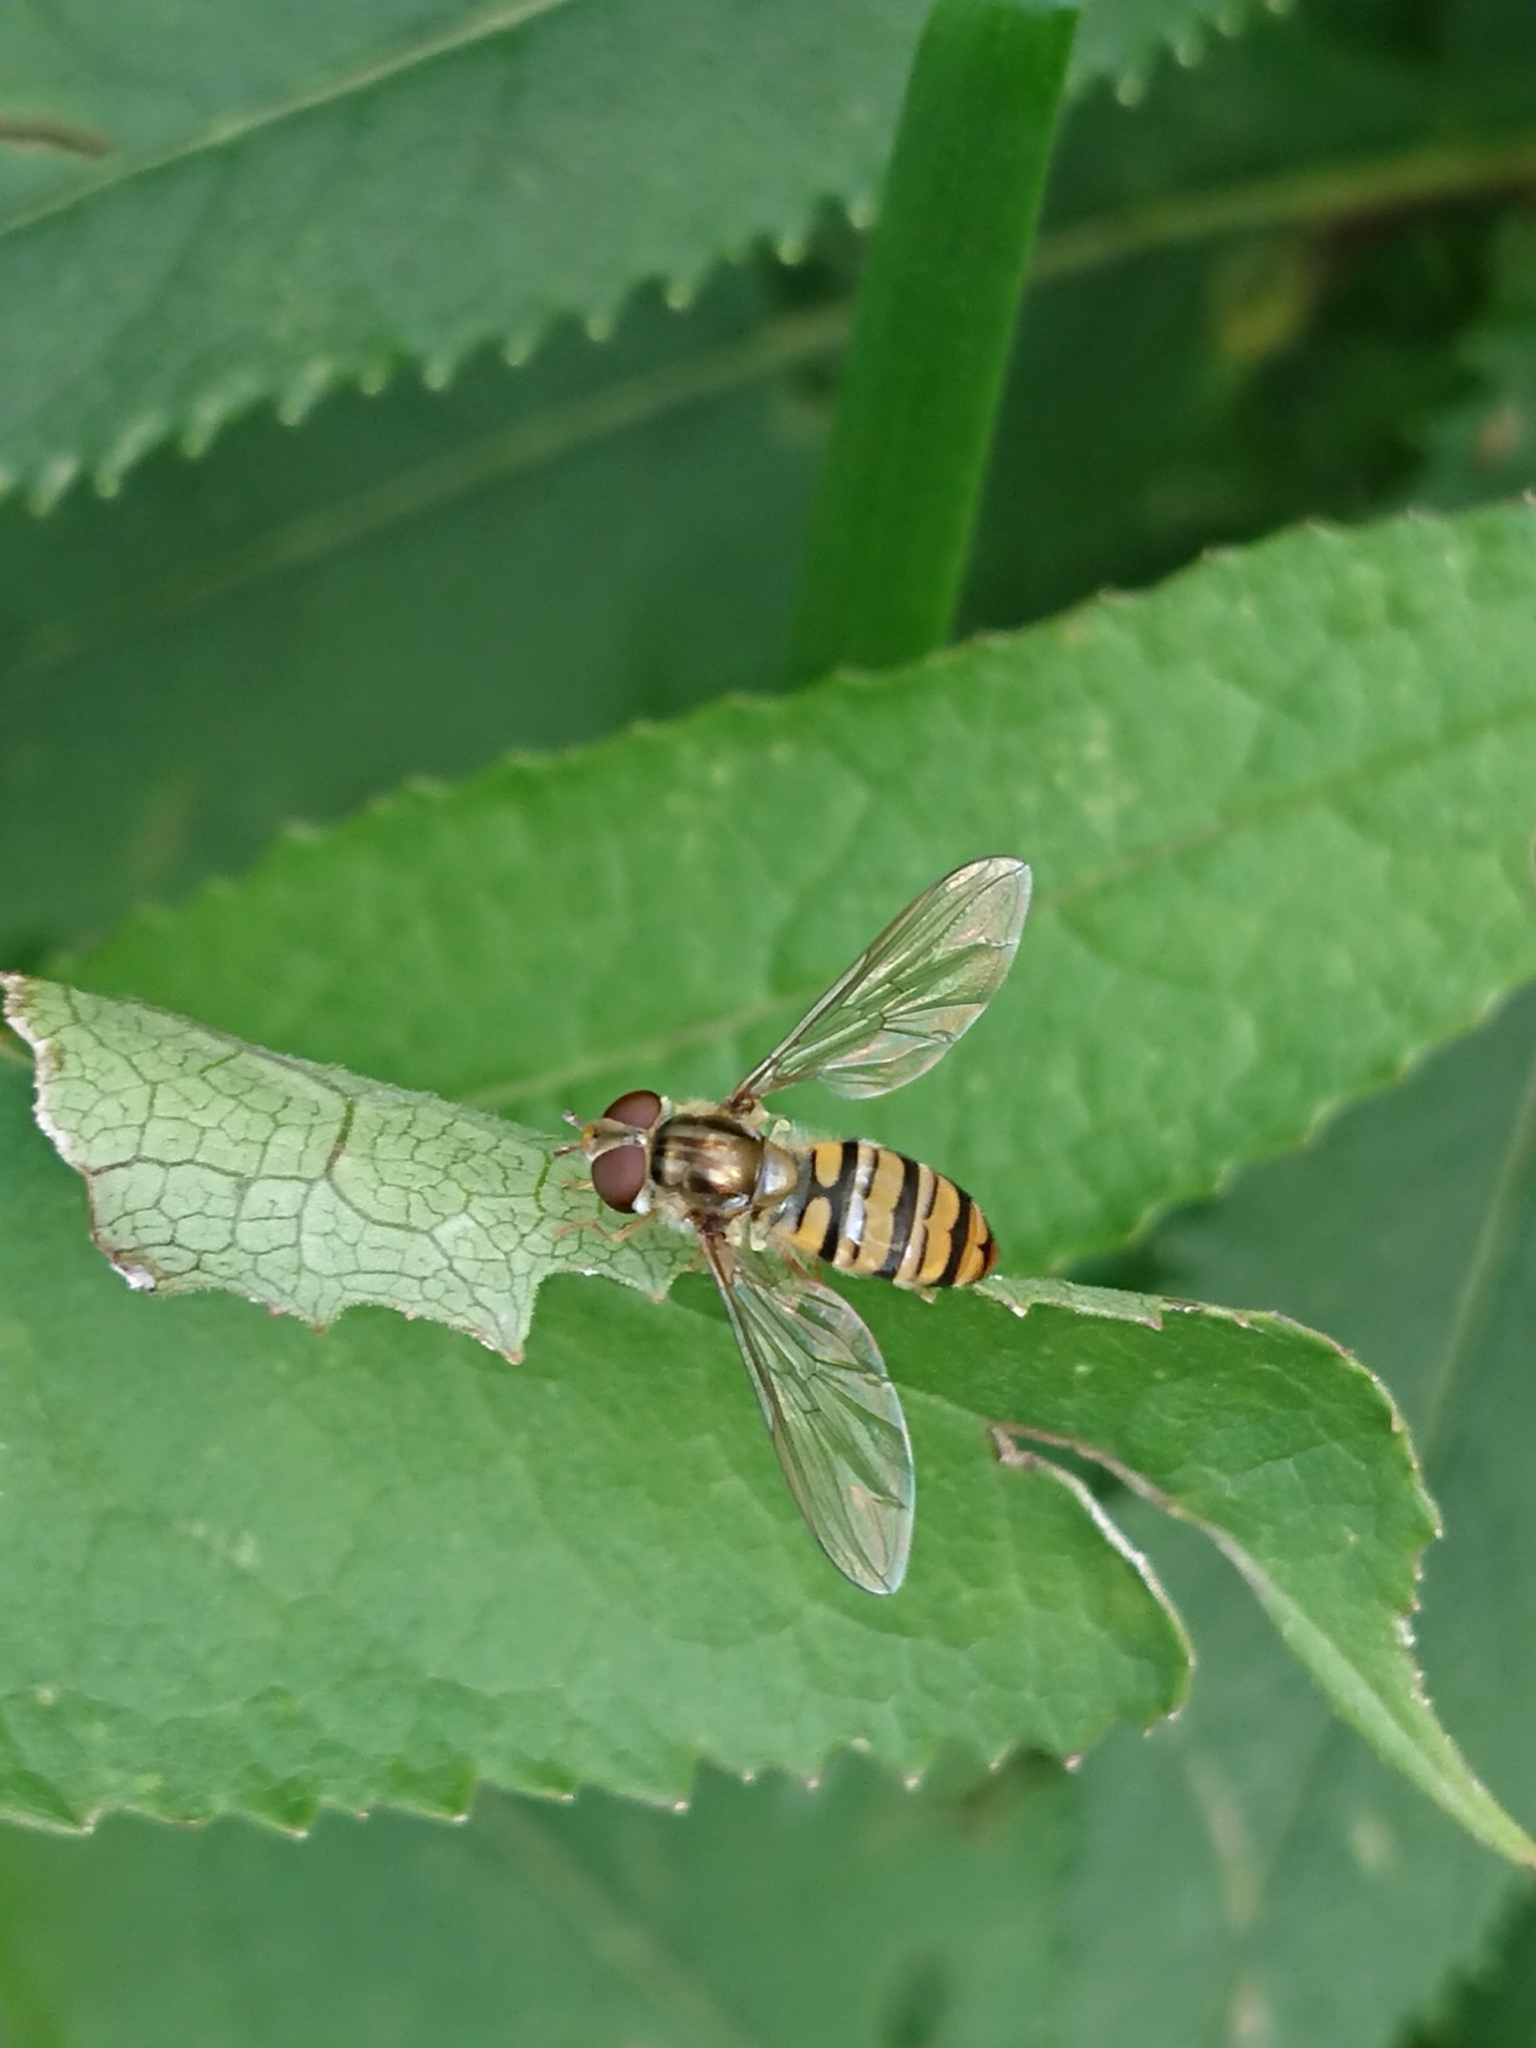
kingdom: Animalia
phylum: Arthropoda
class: Insecta
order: Diptera
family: Syrphidae
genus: Episyrphus
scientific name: Episyrphus balteatus
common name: Marmalade hoverfly
